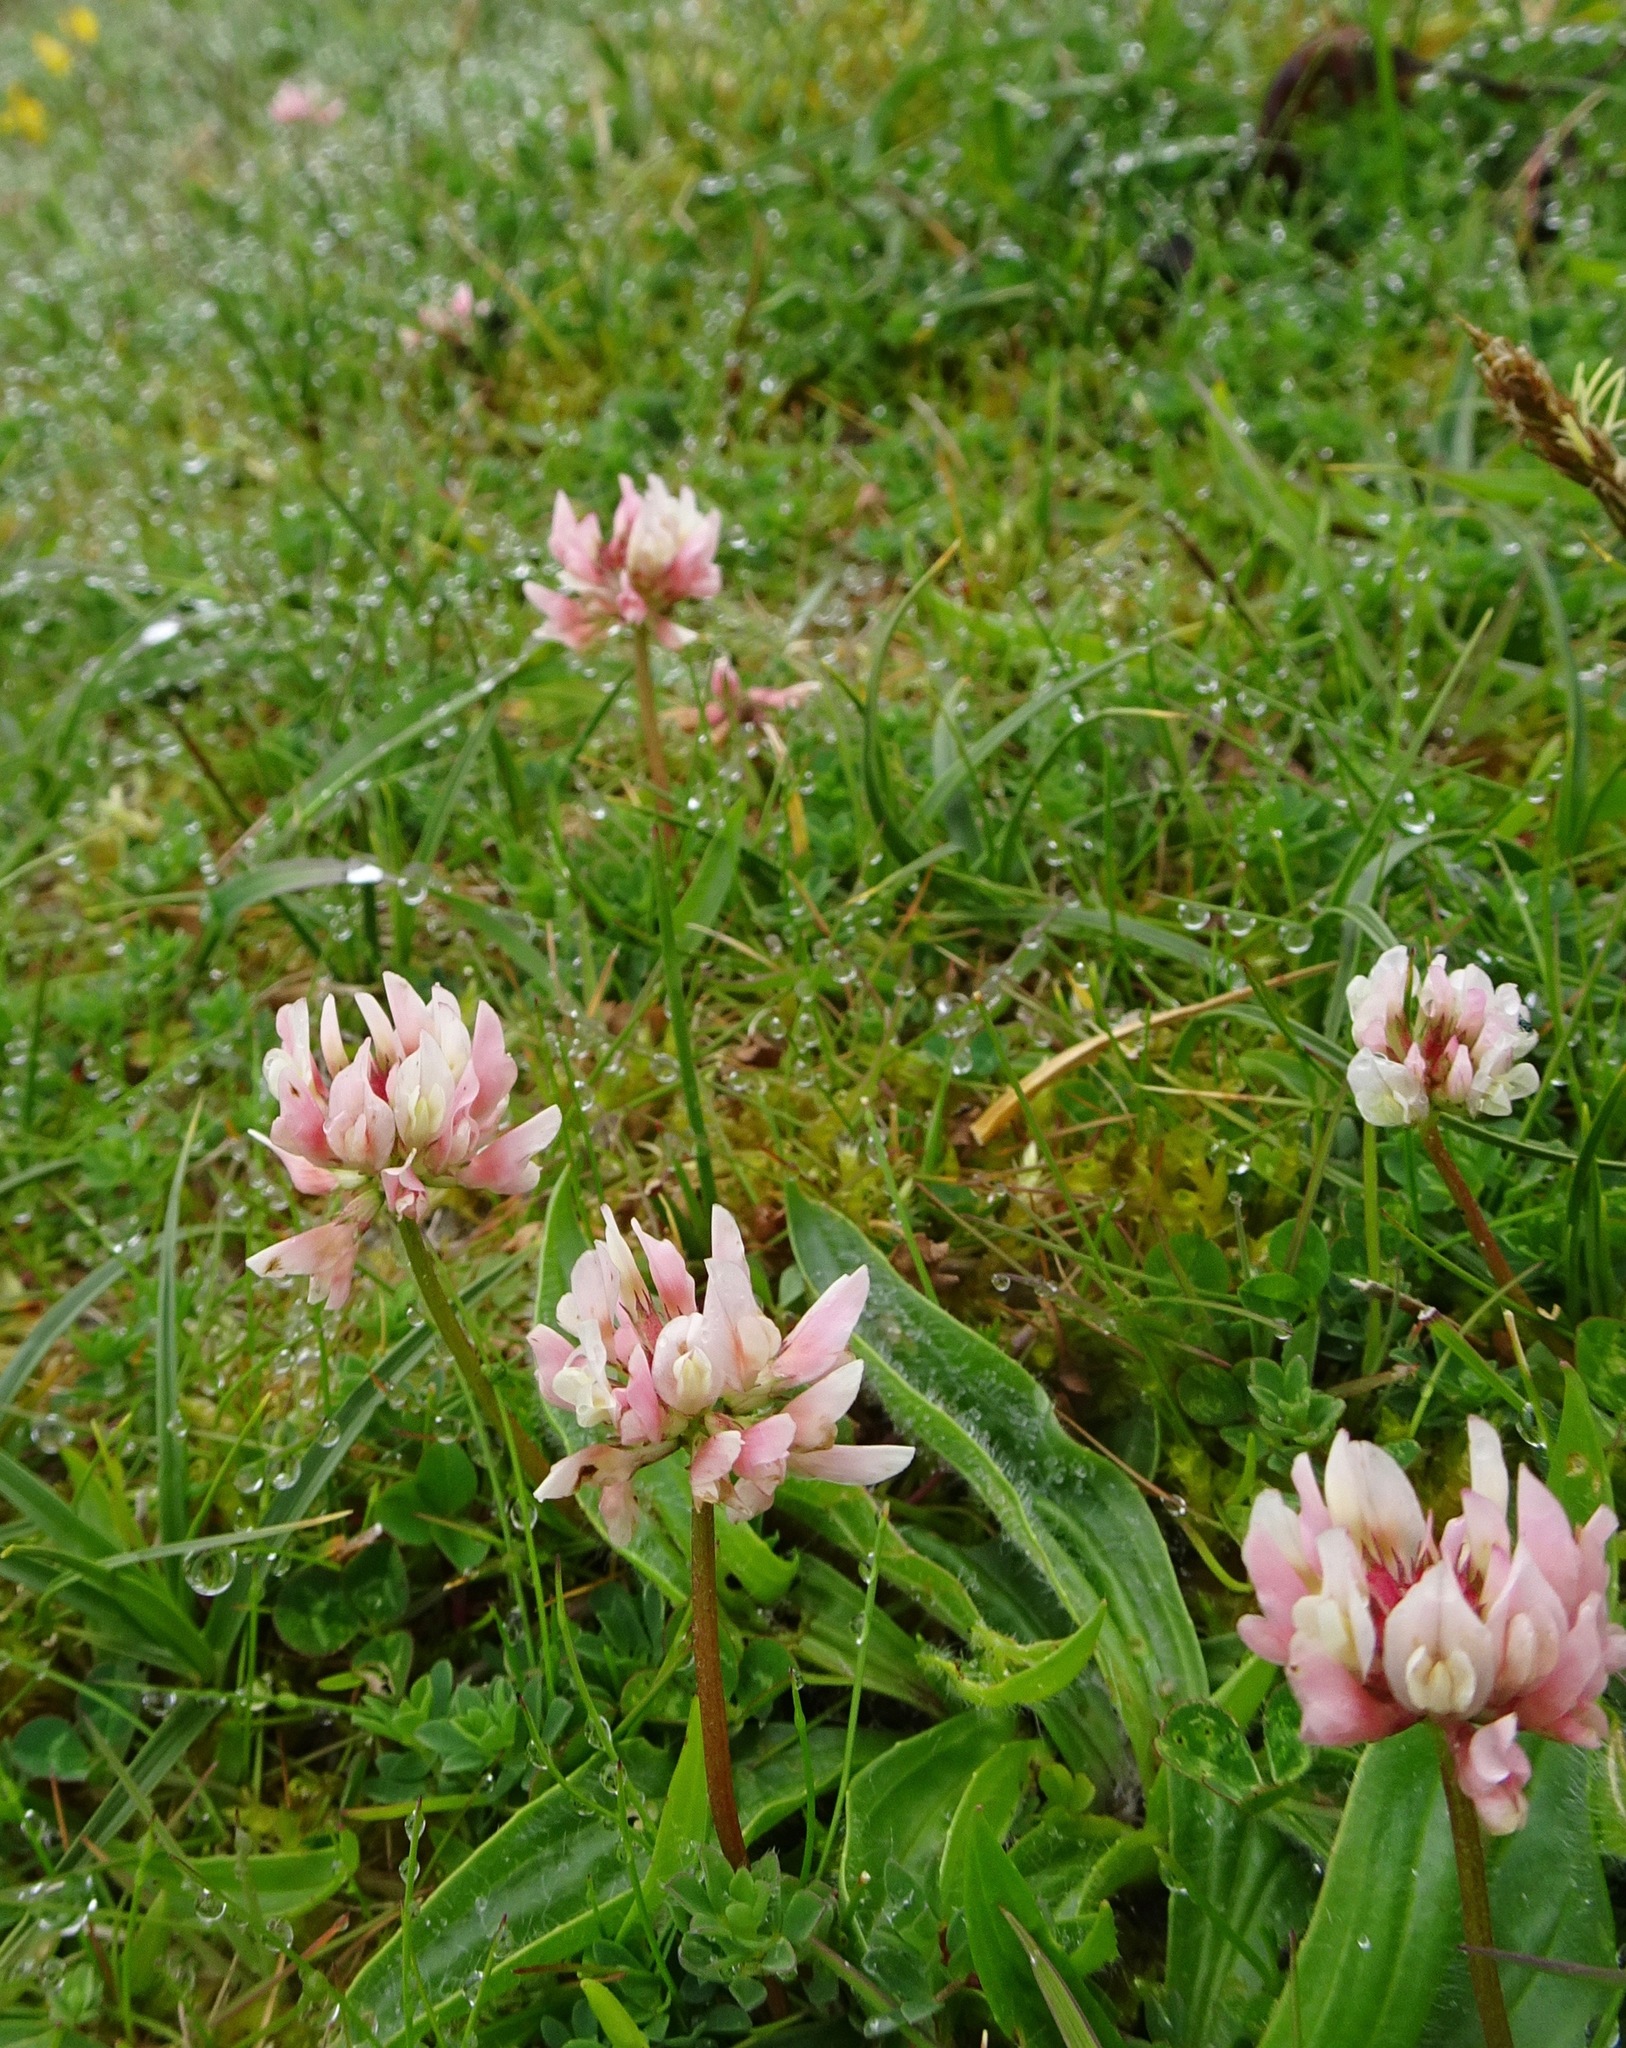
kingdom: Plantae
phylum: Tracheophyta
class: Magnoliopsida
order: Fabales
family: Fabaceae
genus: Trifolium
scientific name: Trifolium repens
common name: White clover
